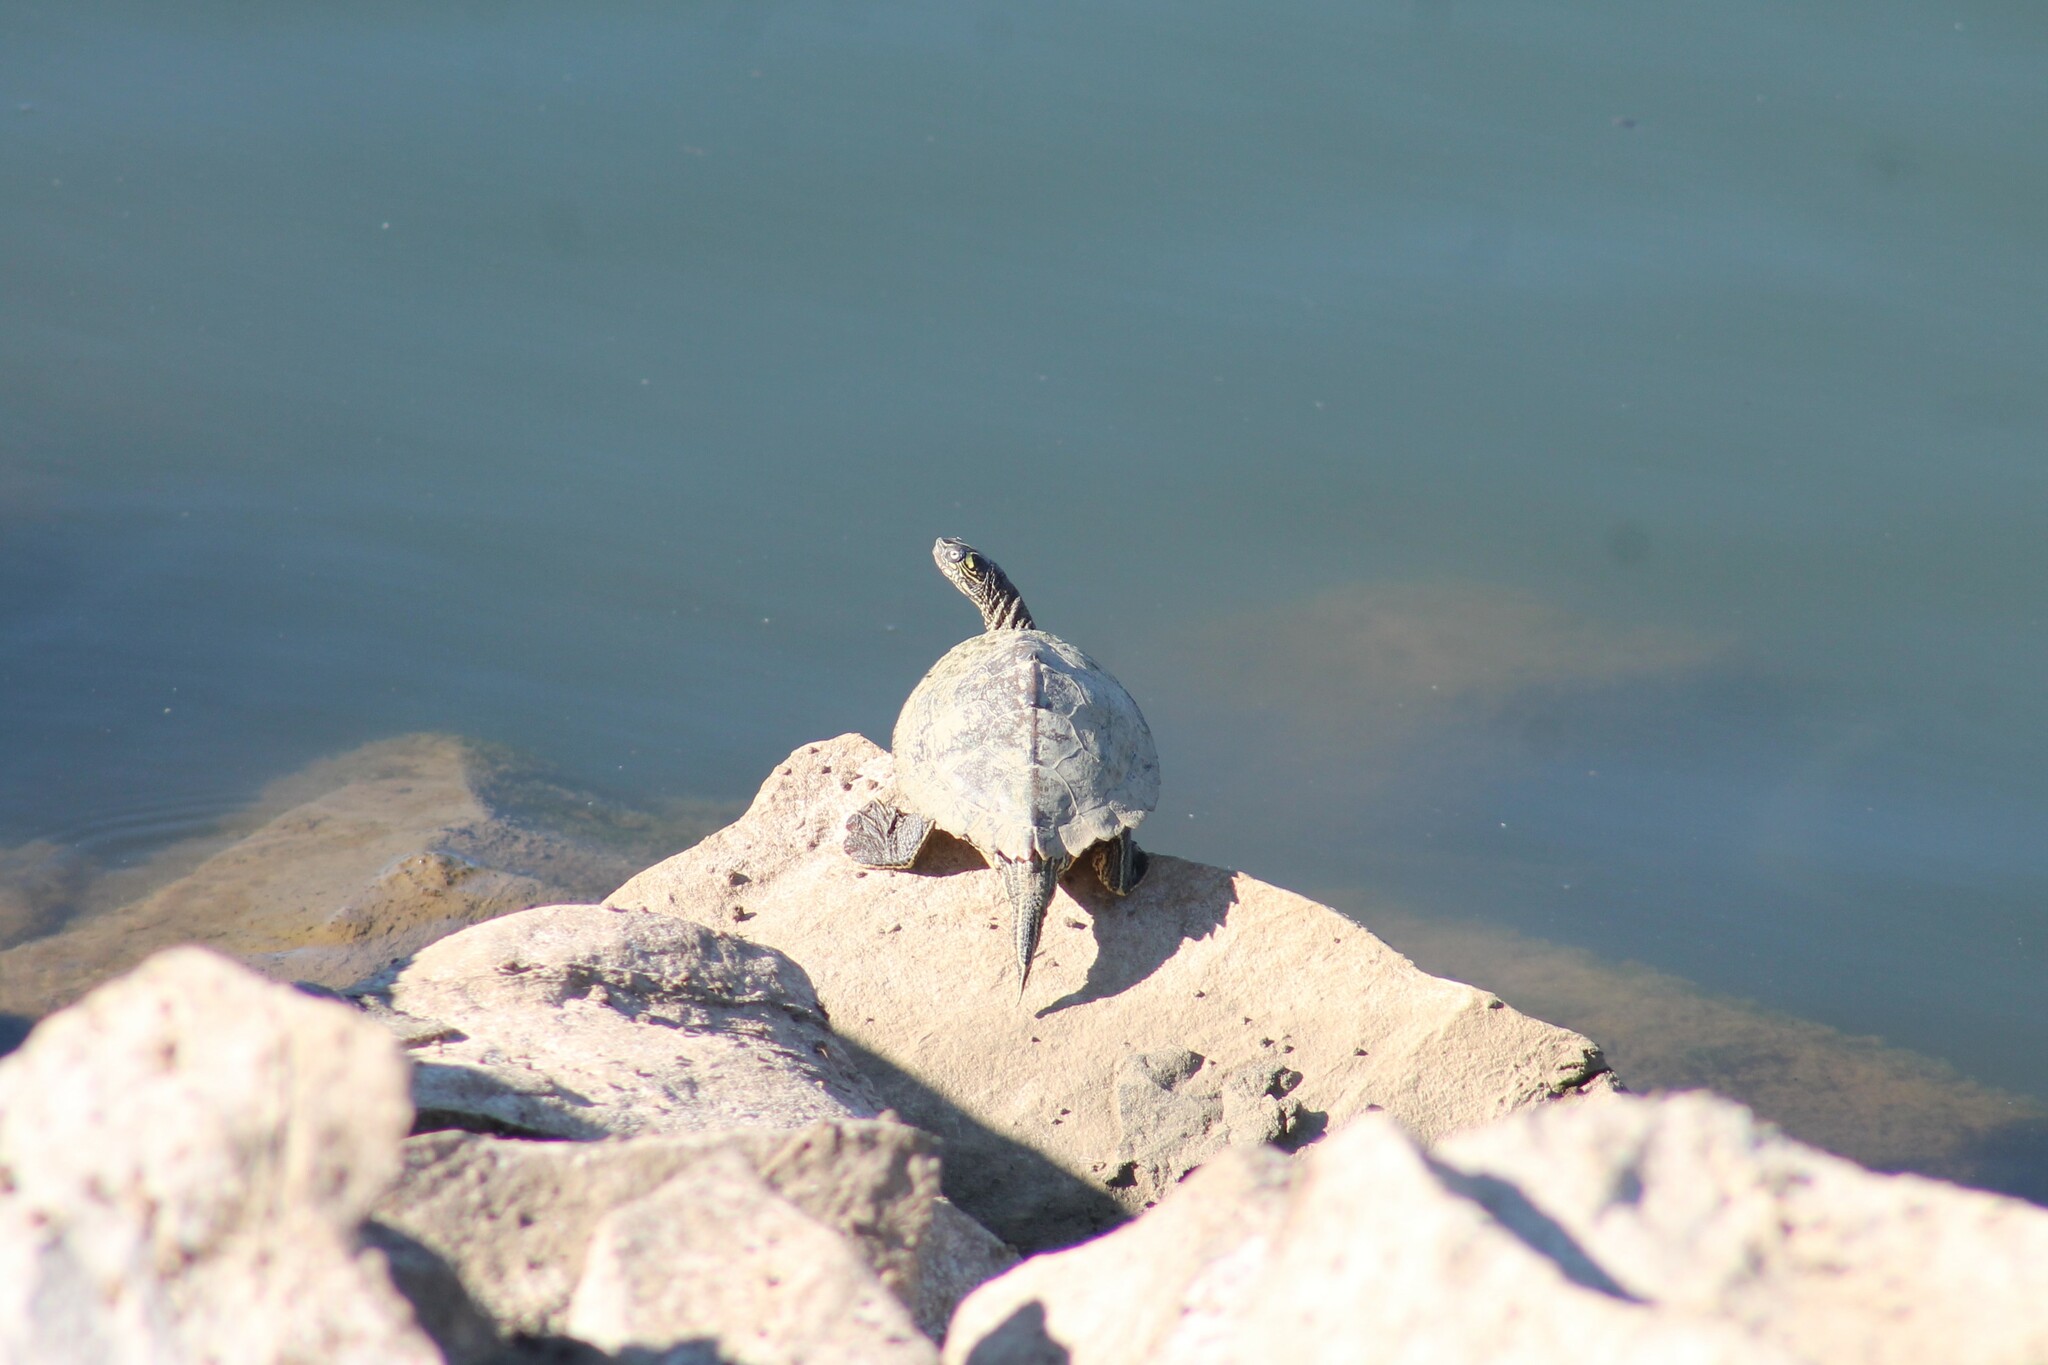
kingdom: Animalia
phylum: Chordata
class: Testudines
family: Emydidae
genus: Graptemys
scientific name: Graptemys ouachitensis
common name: Ouachita map turtle
